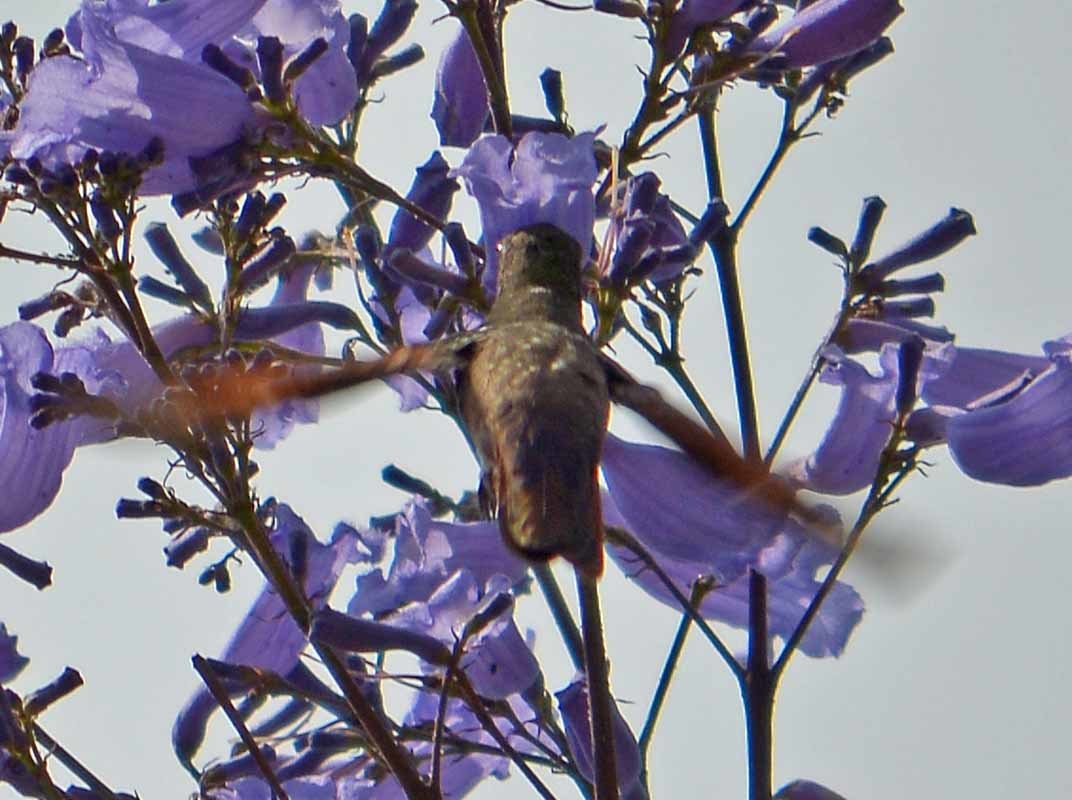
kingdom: Animalia
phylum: Chordata
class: Aves
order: Apodiformes
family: Trochilidae
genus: Saucerottia
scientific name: Saucerottia beryllina
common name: Berylline hummingbird
